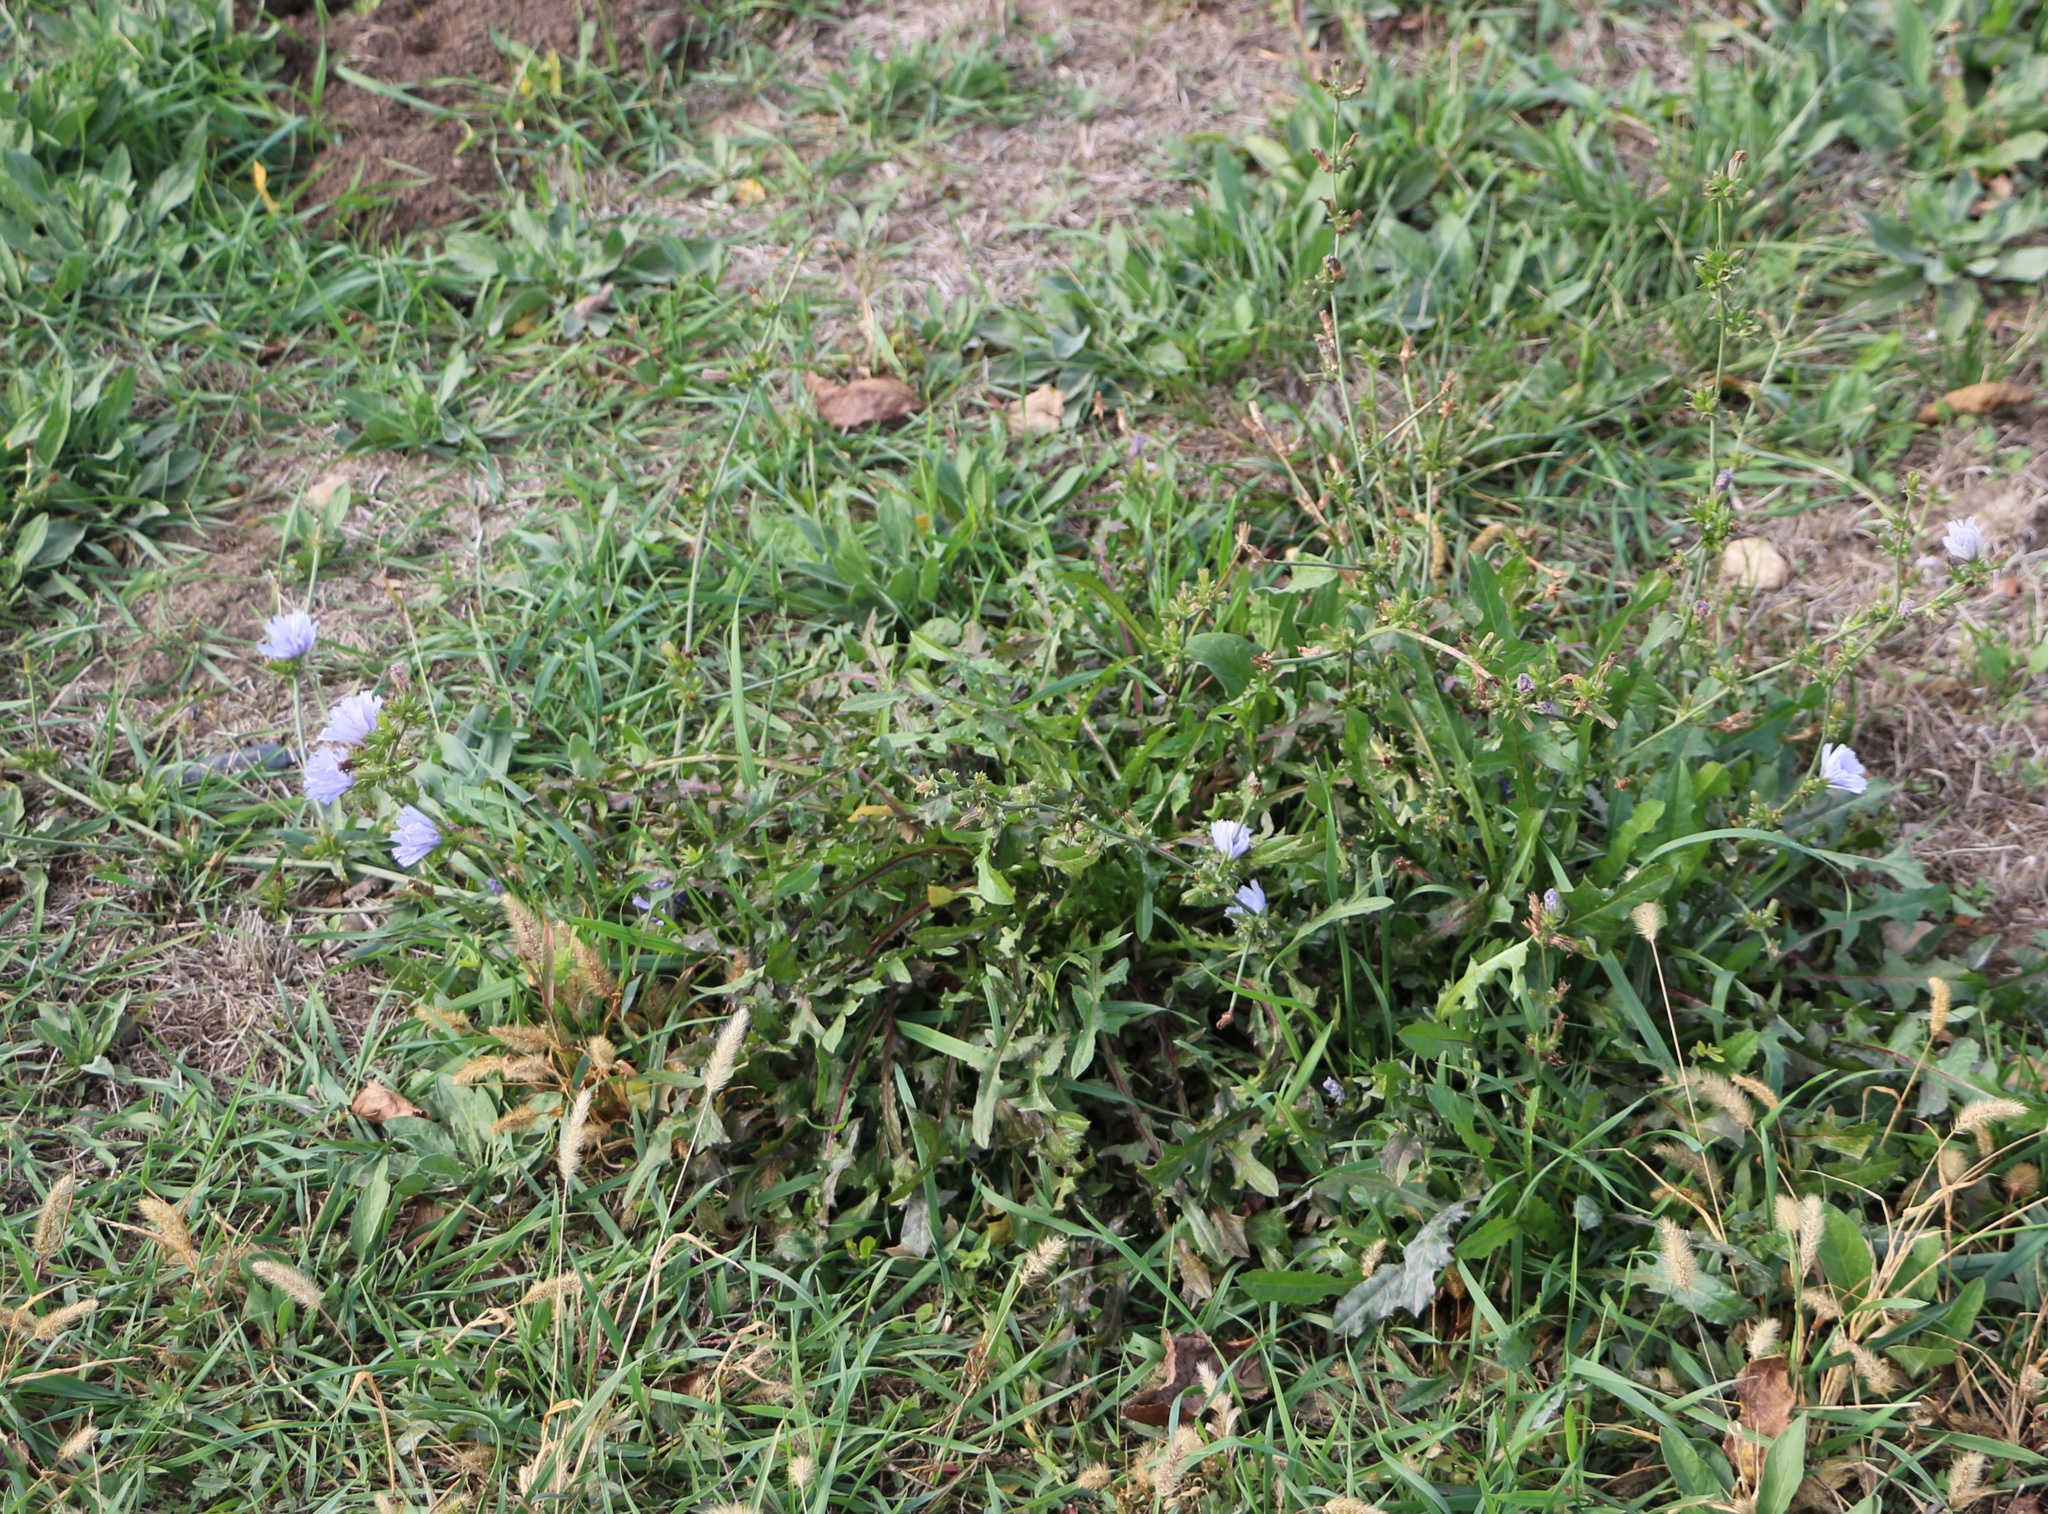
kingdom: Plantae
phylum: Tracheophyta
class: Magnoliopsida
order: Asterales
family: Asteraceae
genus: Cichorium
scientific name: Cichorium intybus
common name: Chicory
